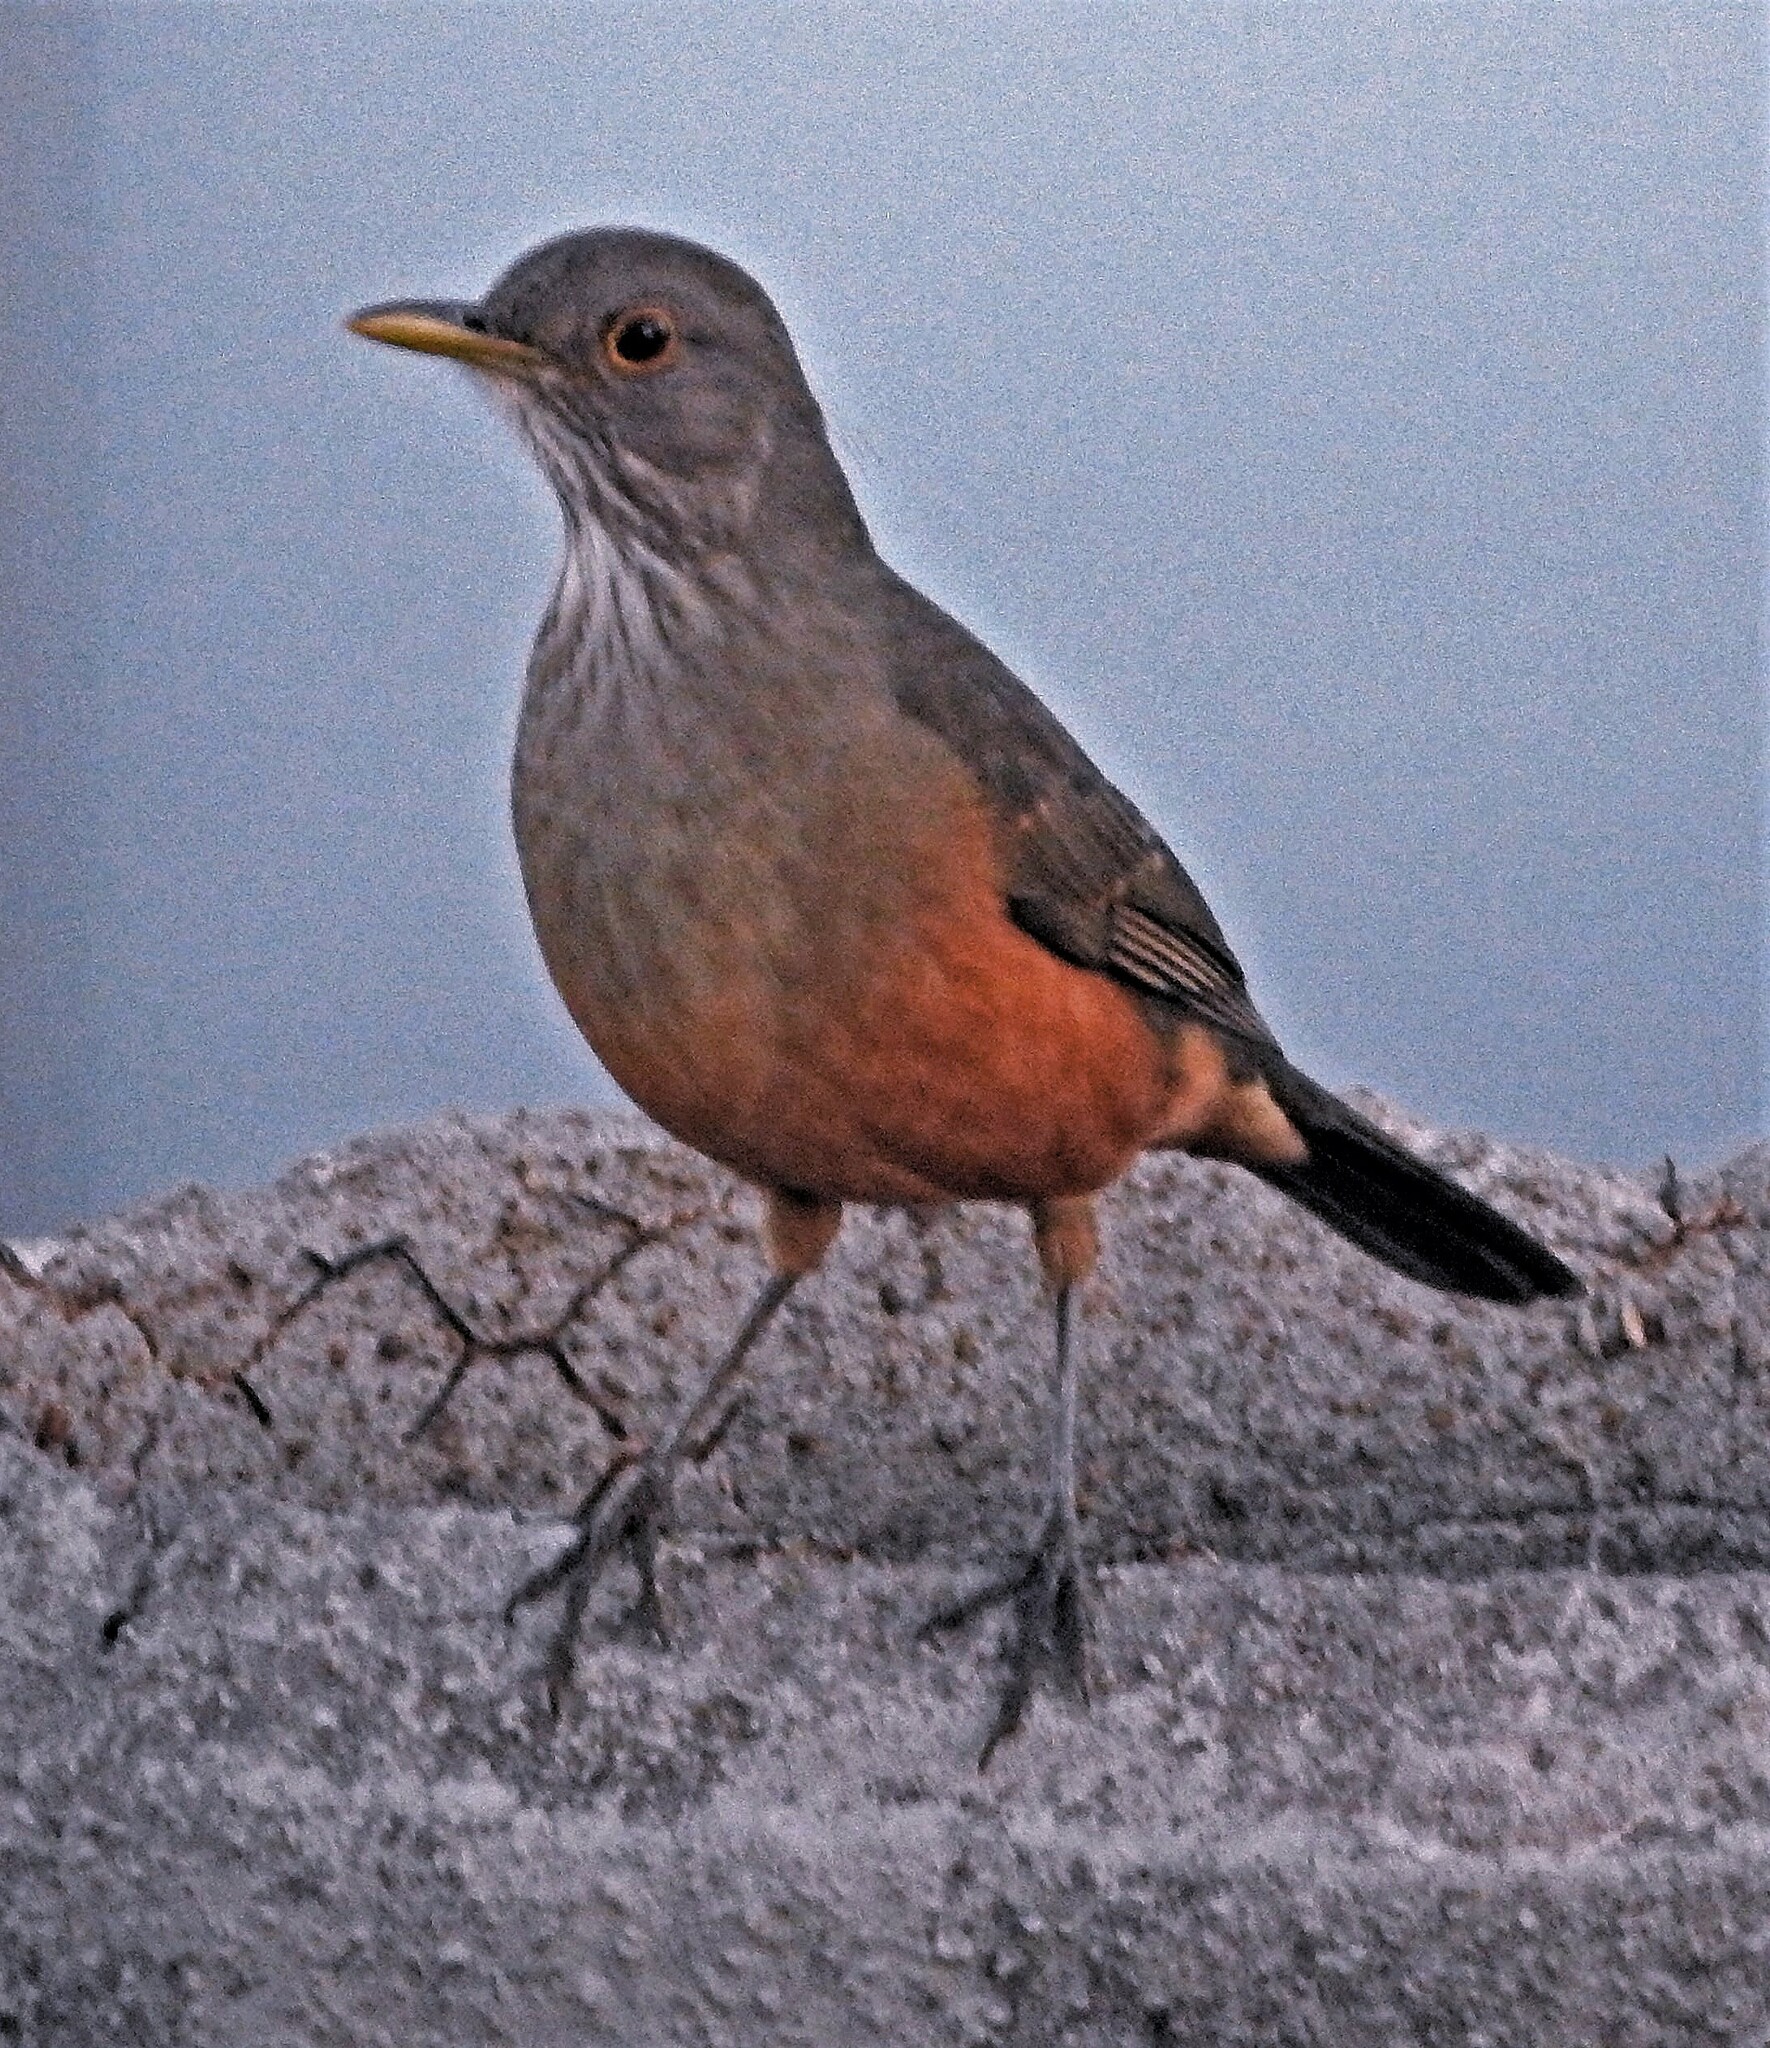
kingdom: Animalia
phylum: Chordata
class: Aves
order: Passeriformes
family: Turdidae
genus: Turdus
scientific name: Turdus rufiventris
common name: Rufous-bellied thrush
